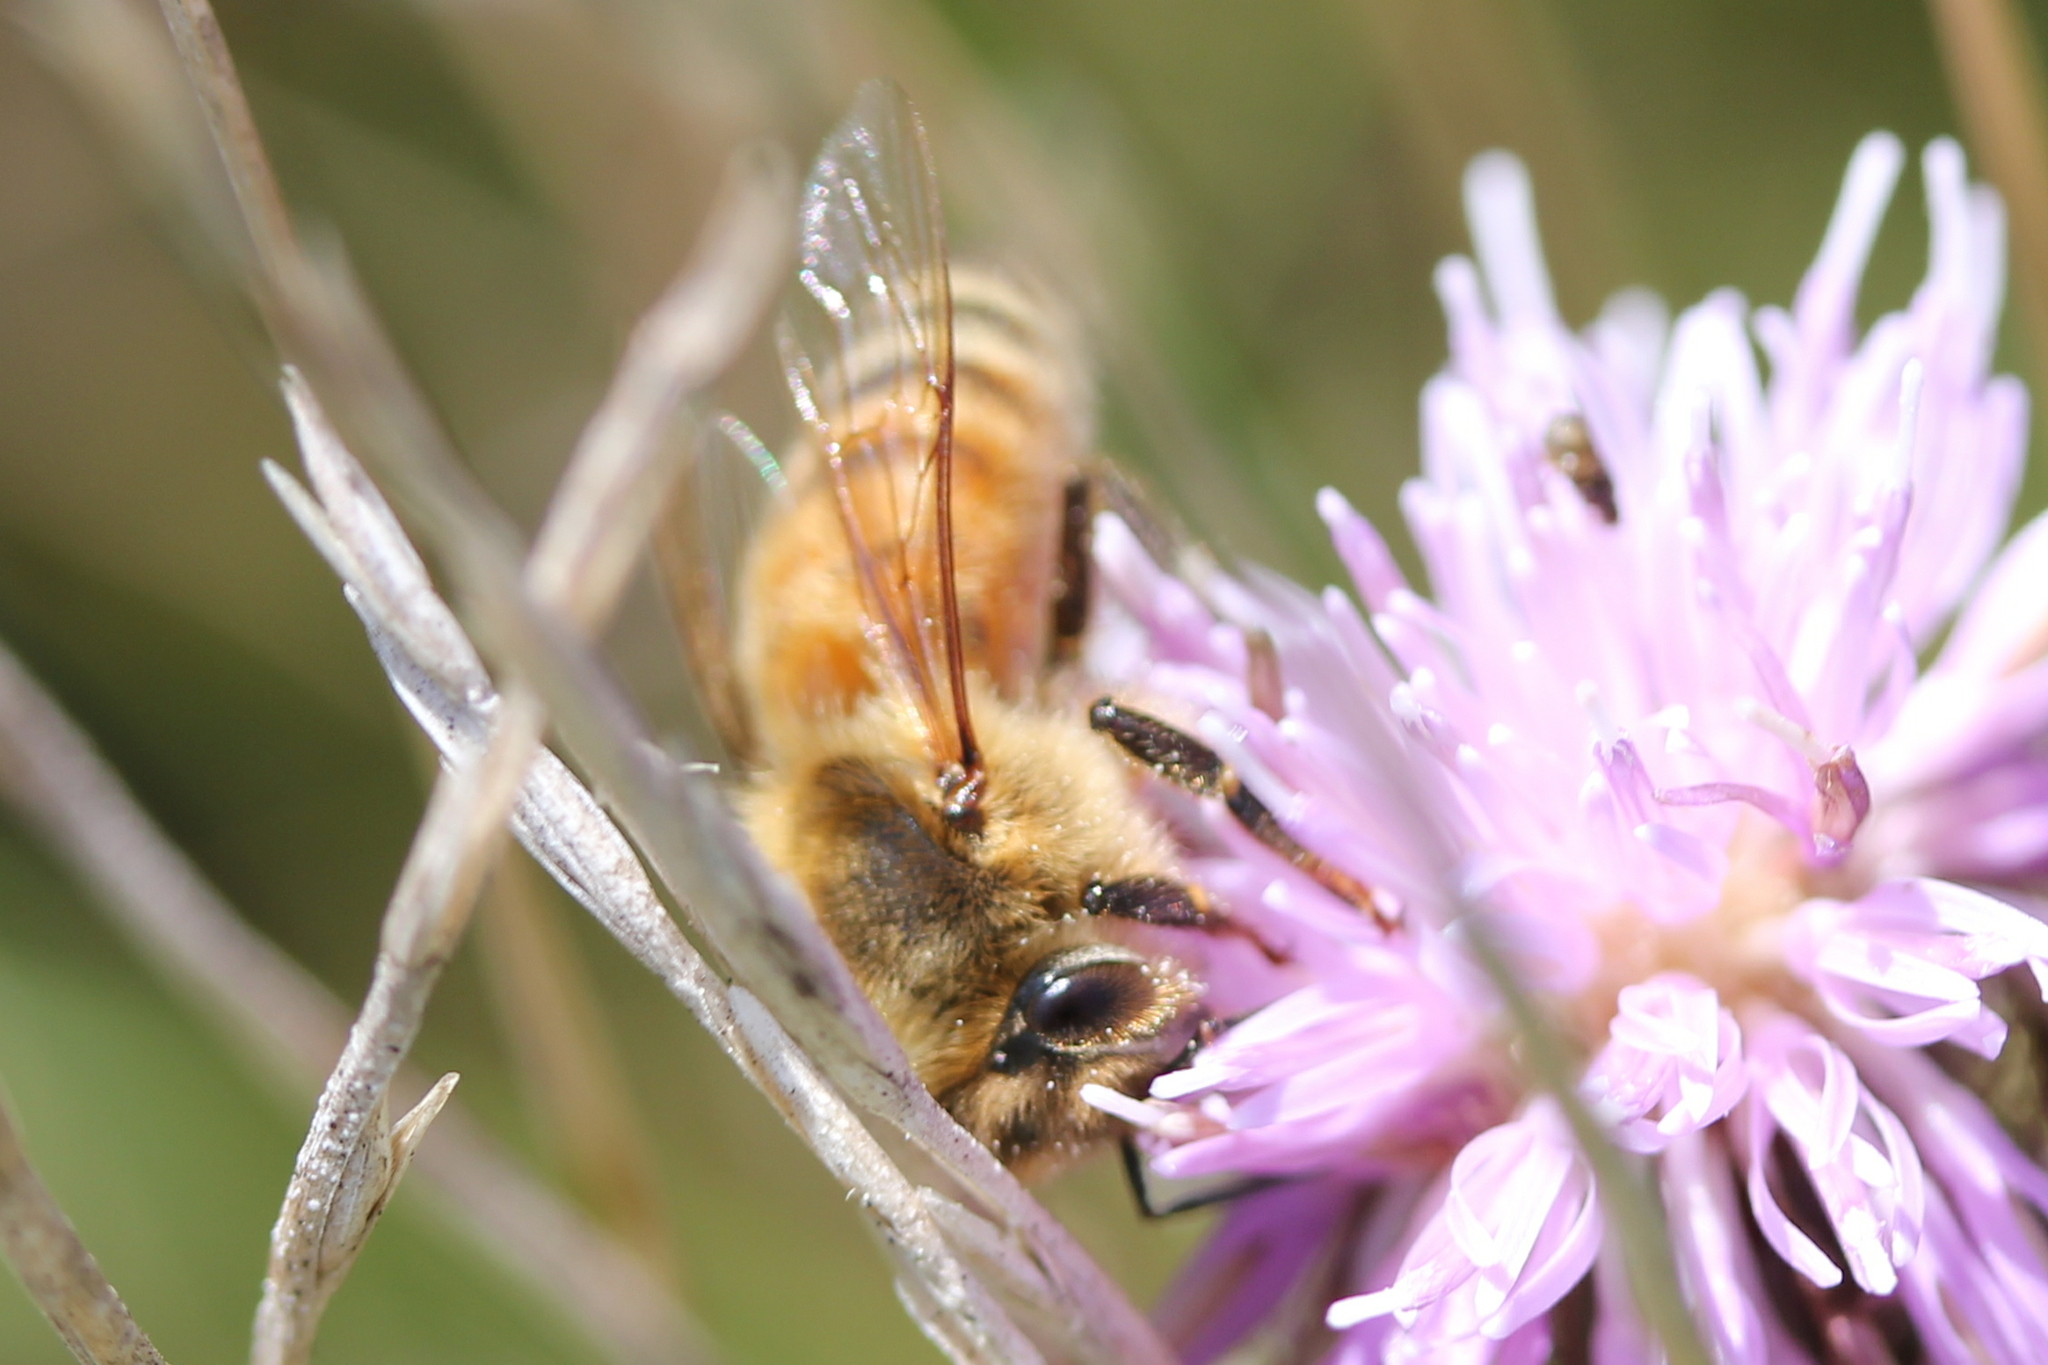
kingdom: Animalia
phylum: Arthropoda
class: Insecta
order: Hymenoptera
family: Apidae
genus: Apis
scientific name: Apis mellifera
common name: Honey bee
